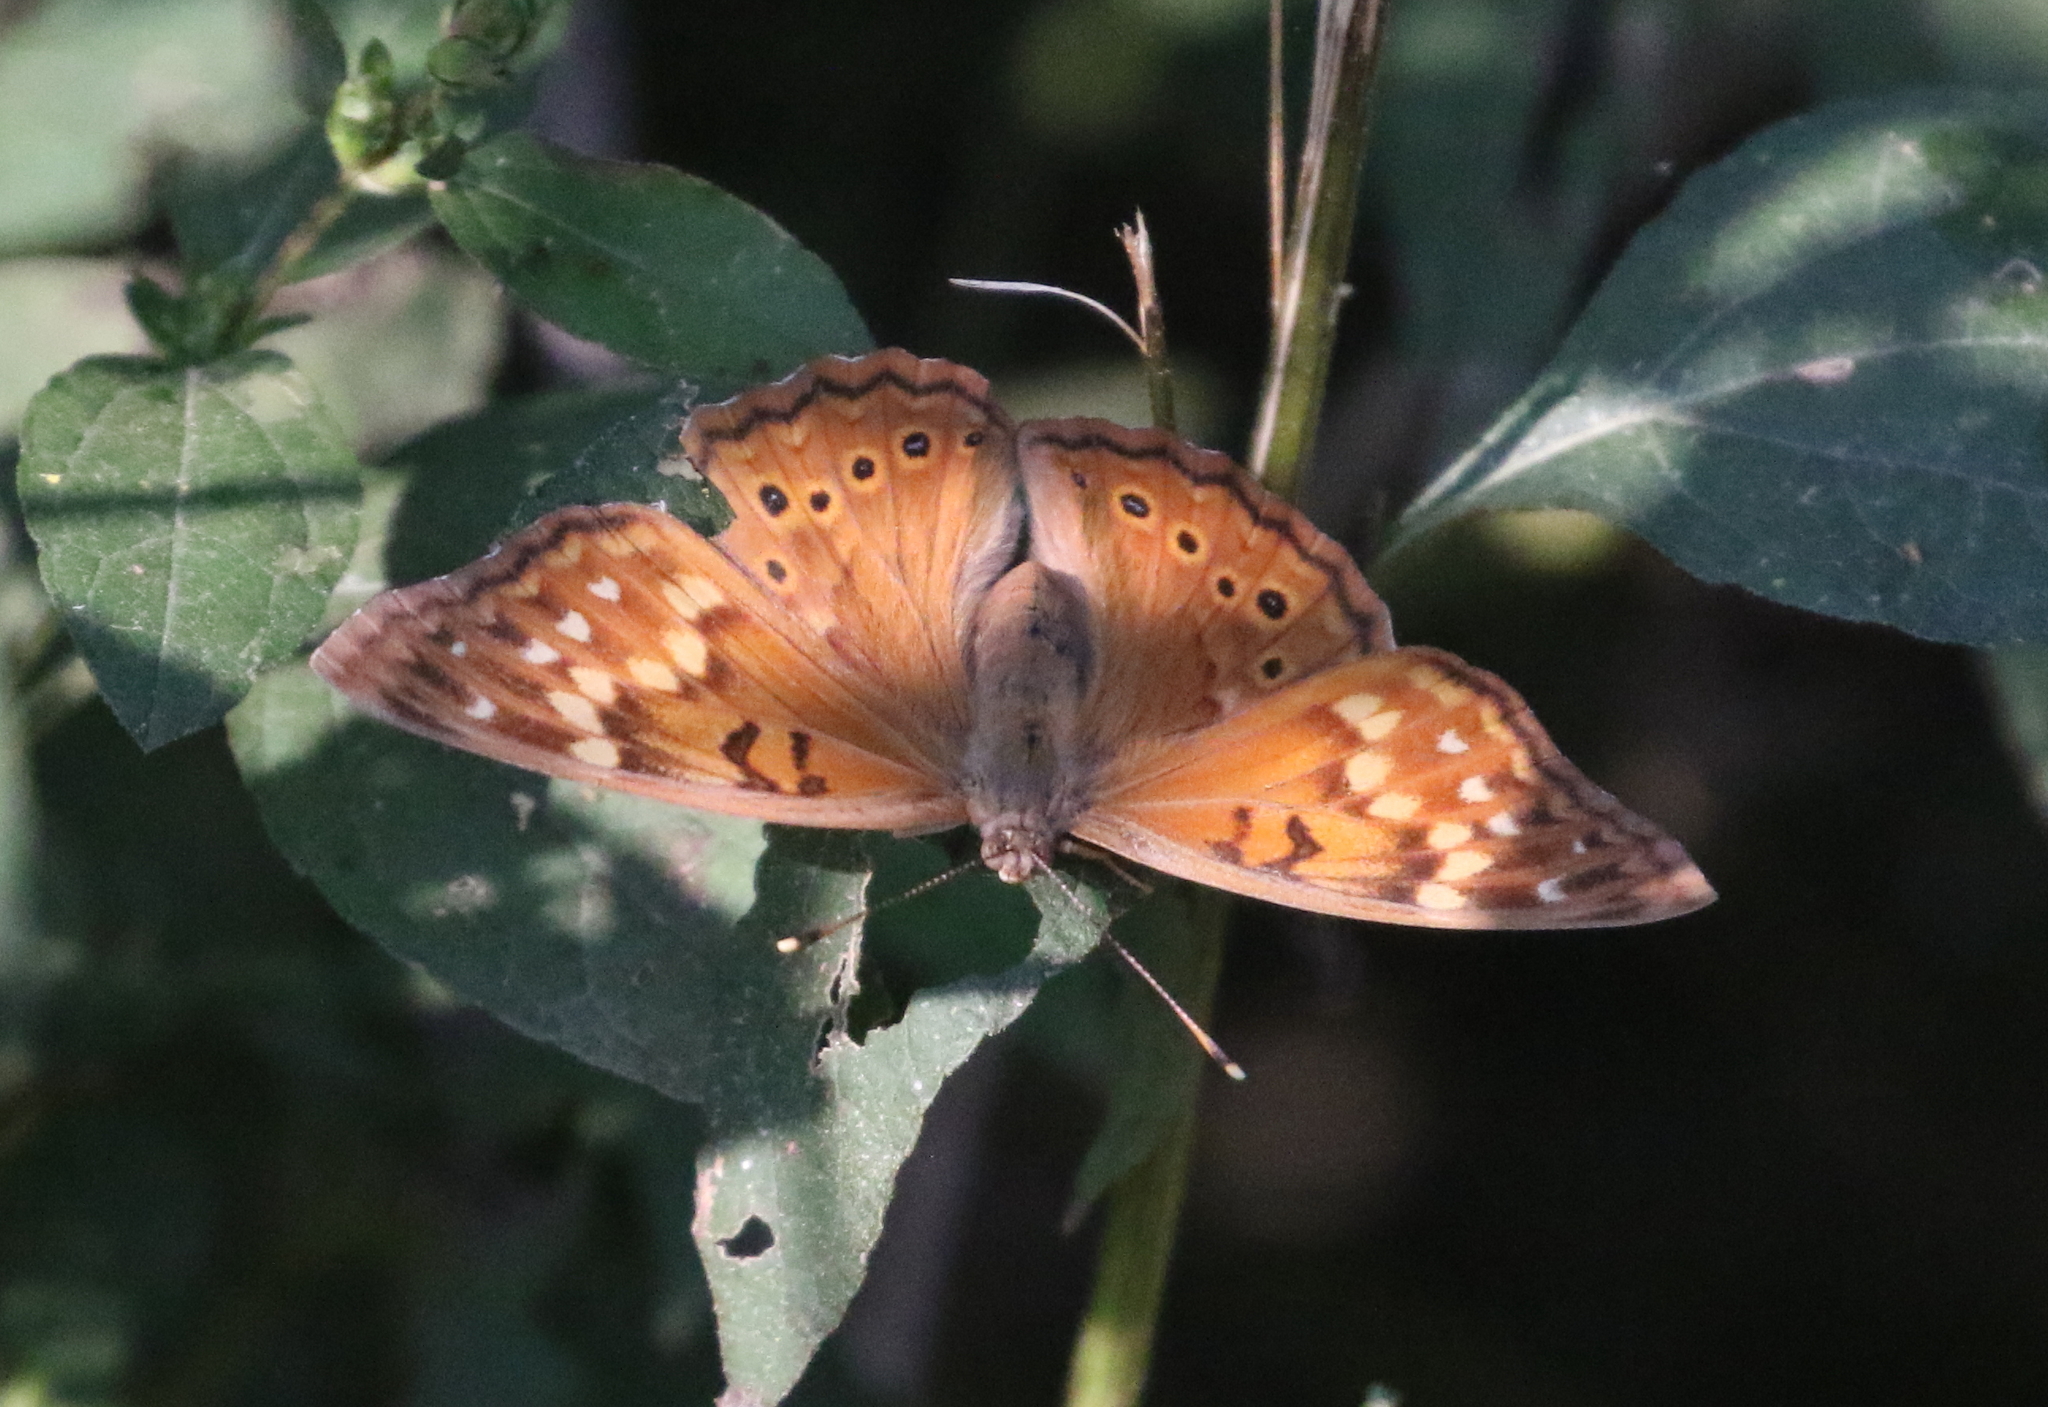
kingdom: Animalia
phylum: Arthropoda
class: Insecta
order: Lepidoptera
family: Nymphalidae
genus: Asterocampa
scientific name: Asterocampa clyton
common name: Tawny emperor
